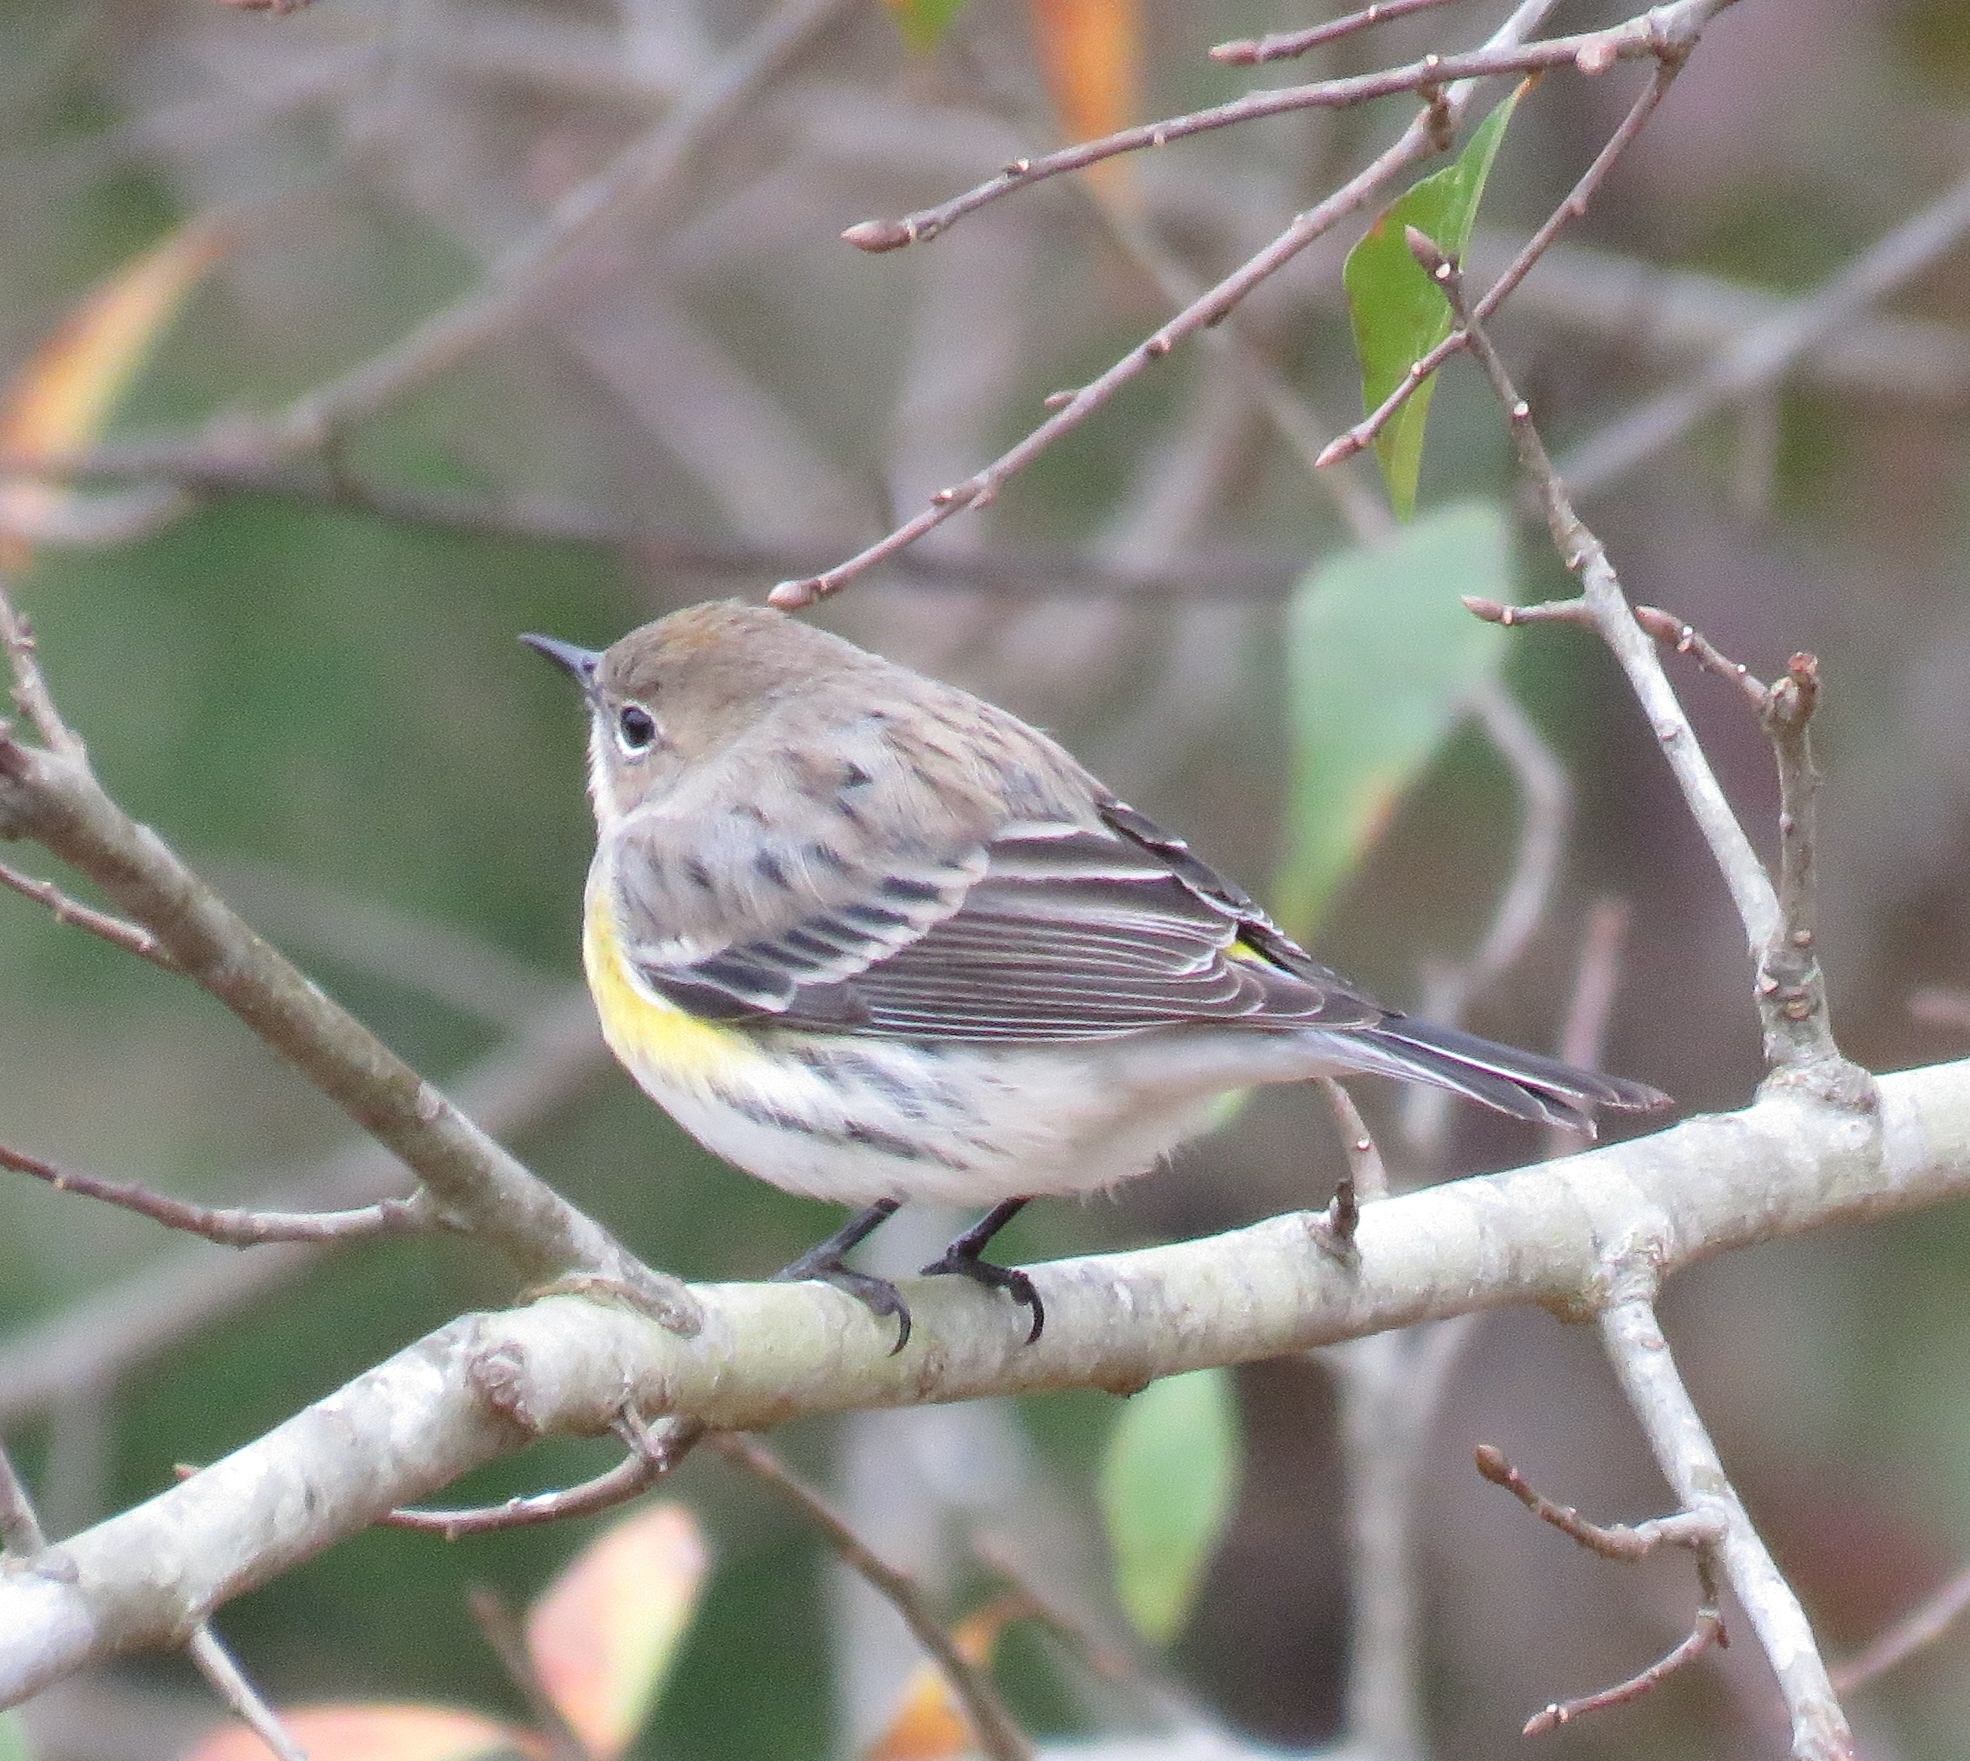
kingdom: Animalia
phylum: Chordata
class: Aves
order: Passeriformes
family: Parulidae
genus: Setophaga
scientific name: Setophaga coronata
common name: Myrtle warbler
